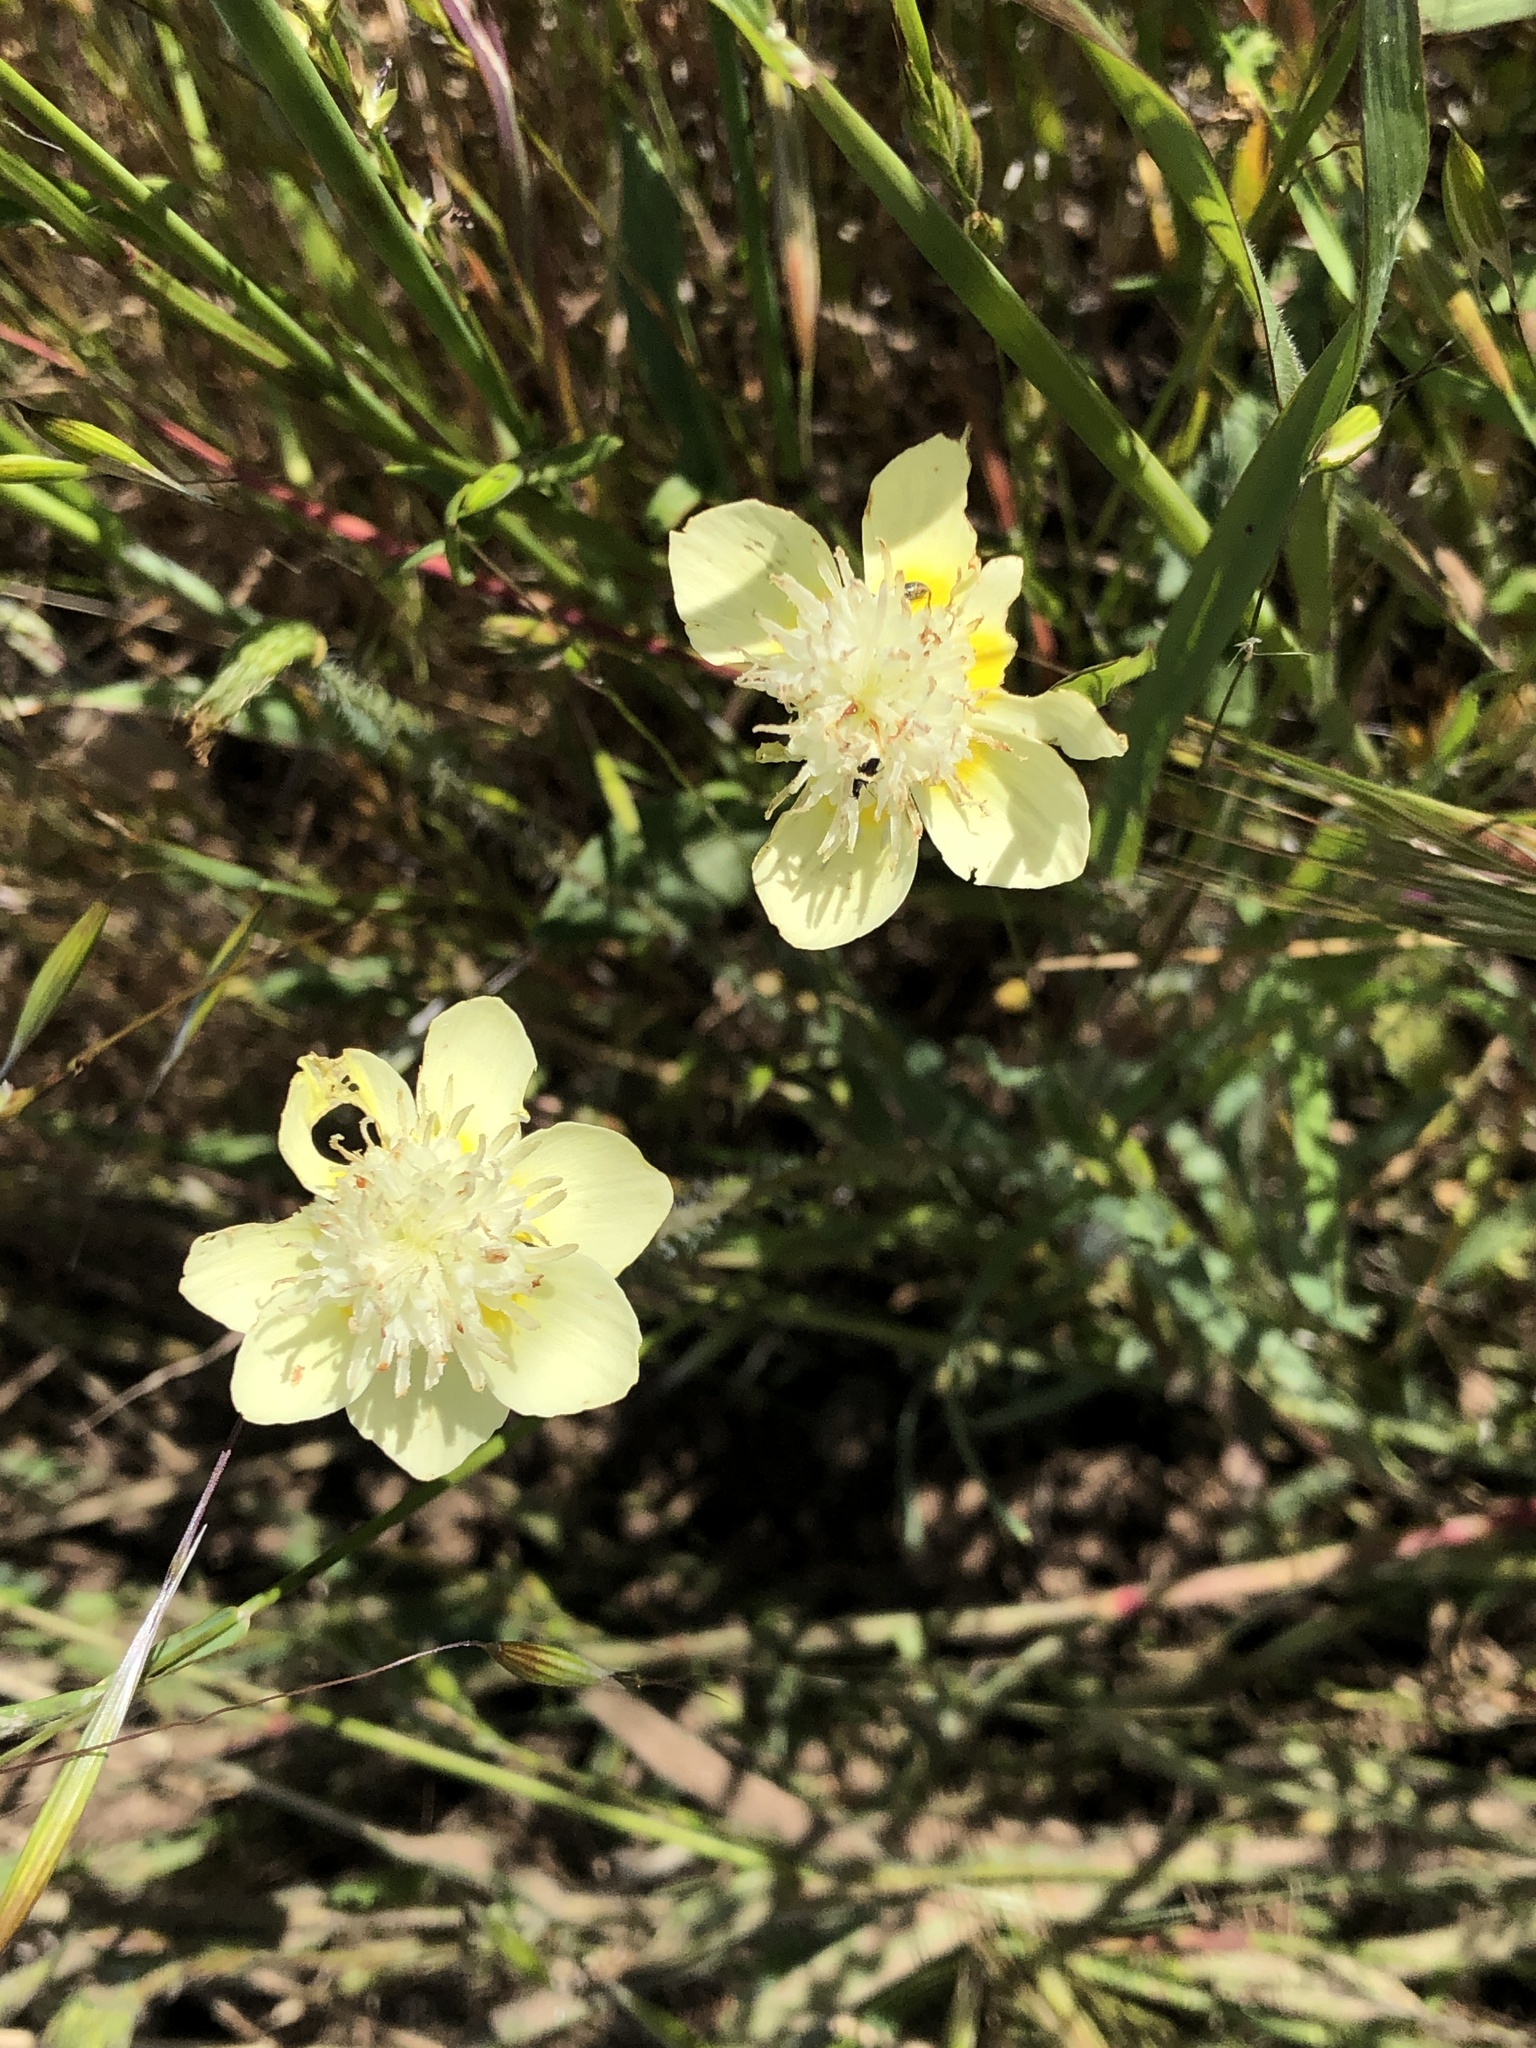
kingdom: Plantae
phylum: Tracheophyta
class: Magnoliopsida
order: Ranunculales
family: Papaveraceae
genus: Platystemon
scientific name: Platystemon californicus
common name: Cream-cups
